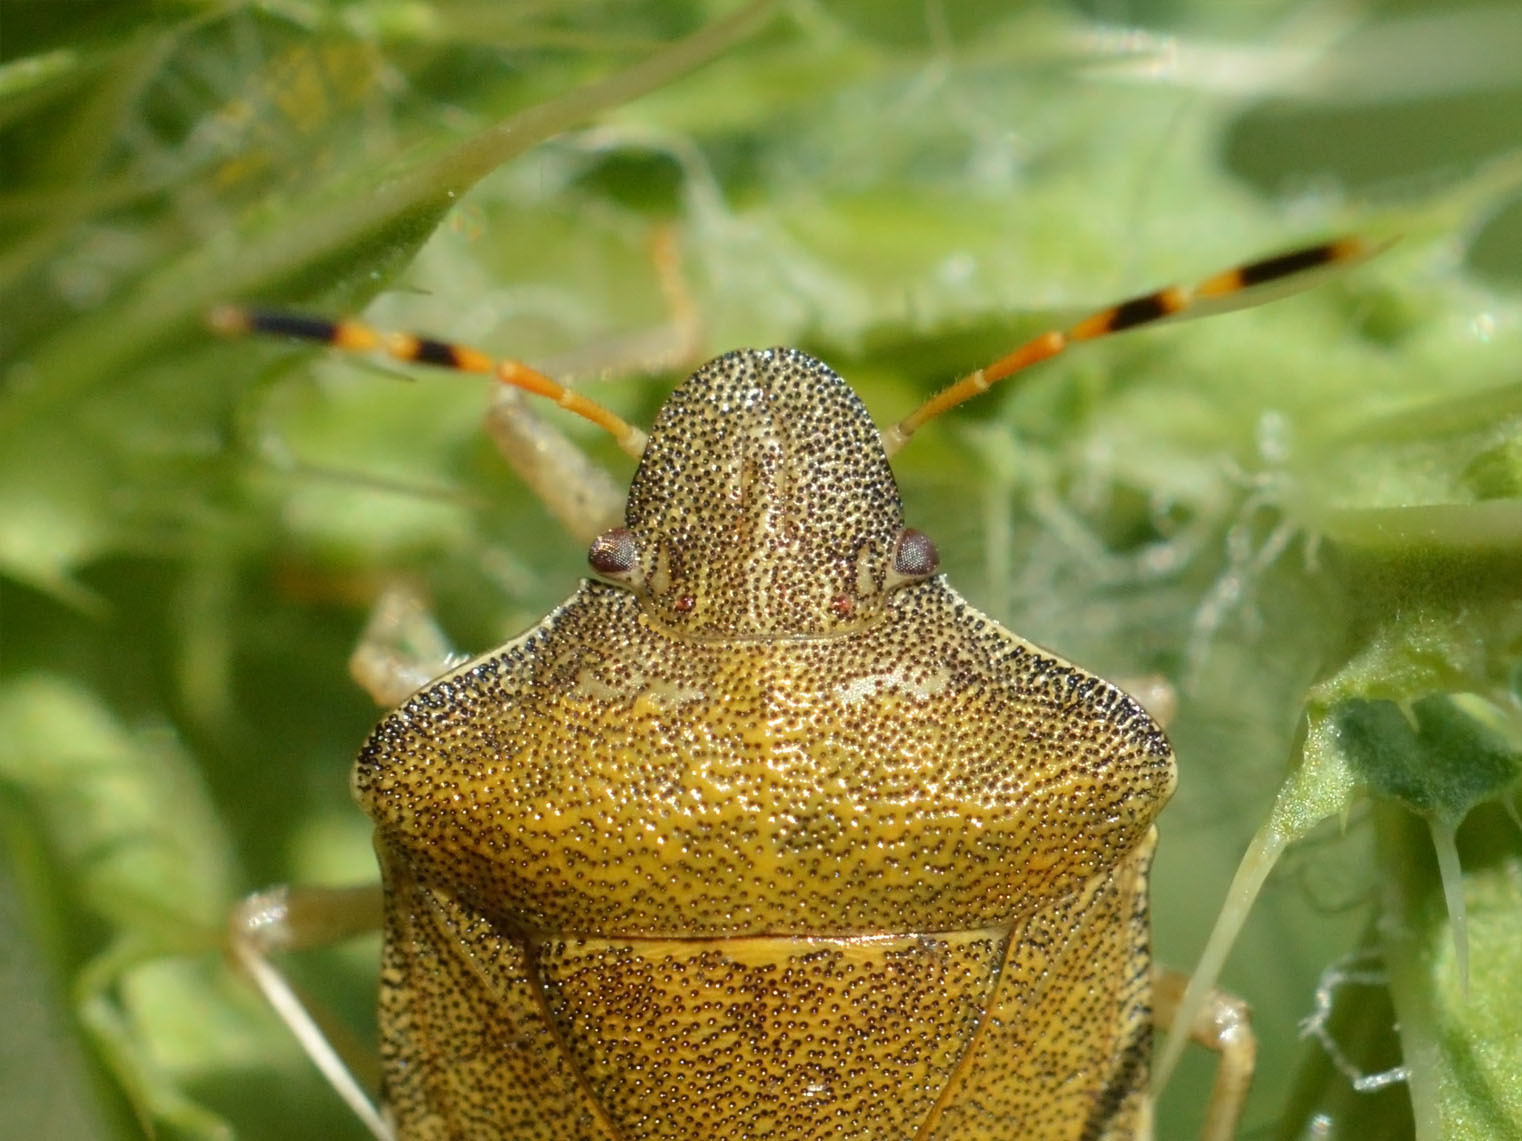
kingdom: Animalia
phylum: Arthropoda
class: Insecta
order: Hemiptera
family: Pentatomidae
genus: Holcostethus
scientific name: Holcostethus strictus
